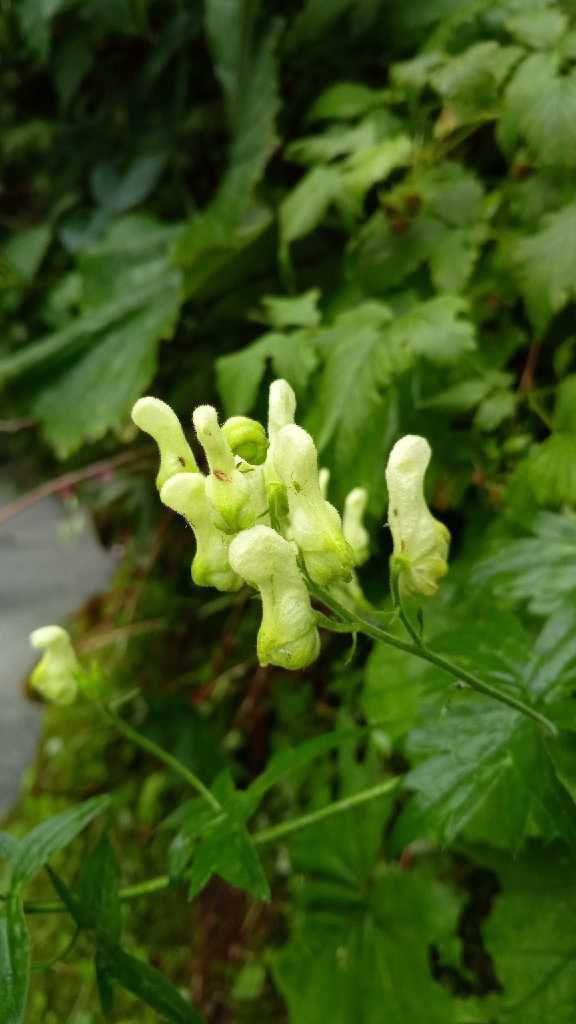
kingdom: Plantae
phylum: Tracheophyta
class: Magnoliopsida
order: Ranunculales
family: Ranunculaceae
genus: Aconitum
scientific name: Aconitum lycoctonum
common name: Wolf's-bane
